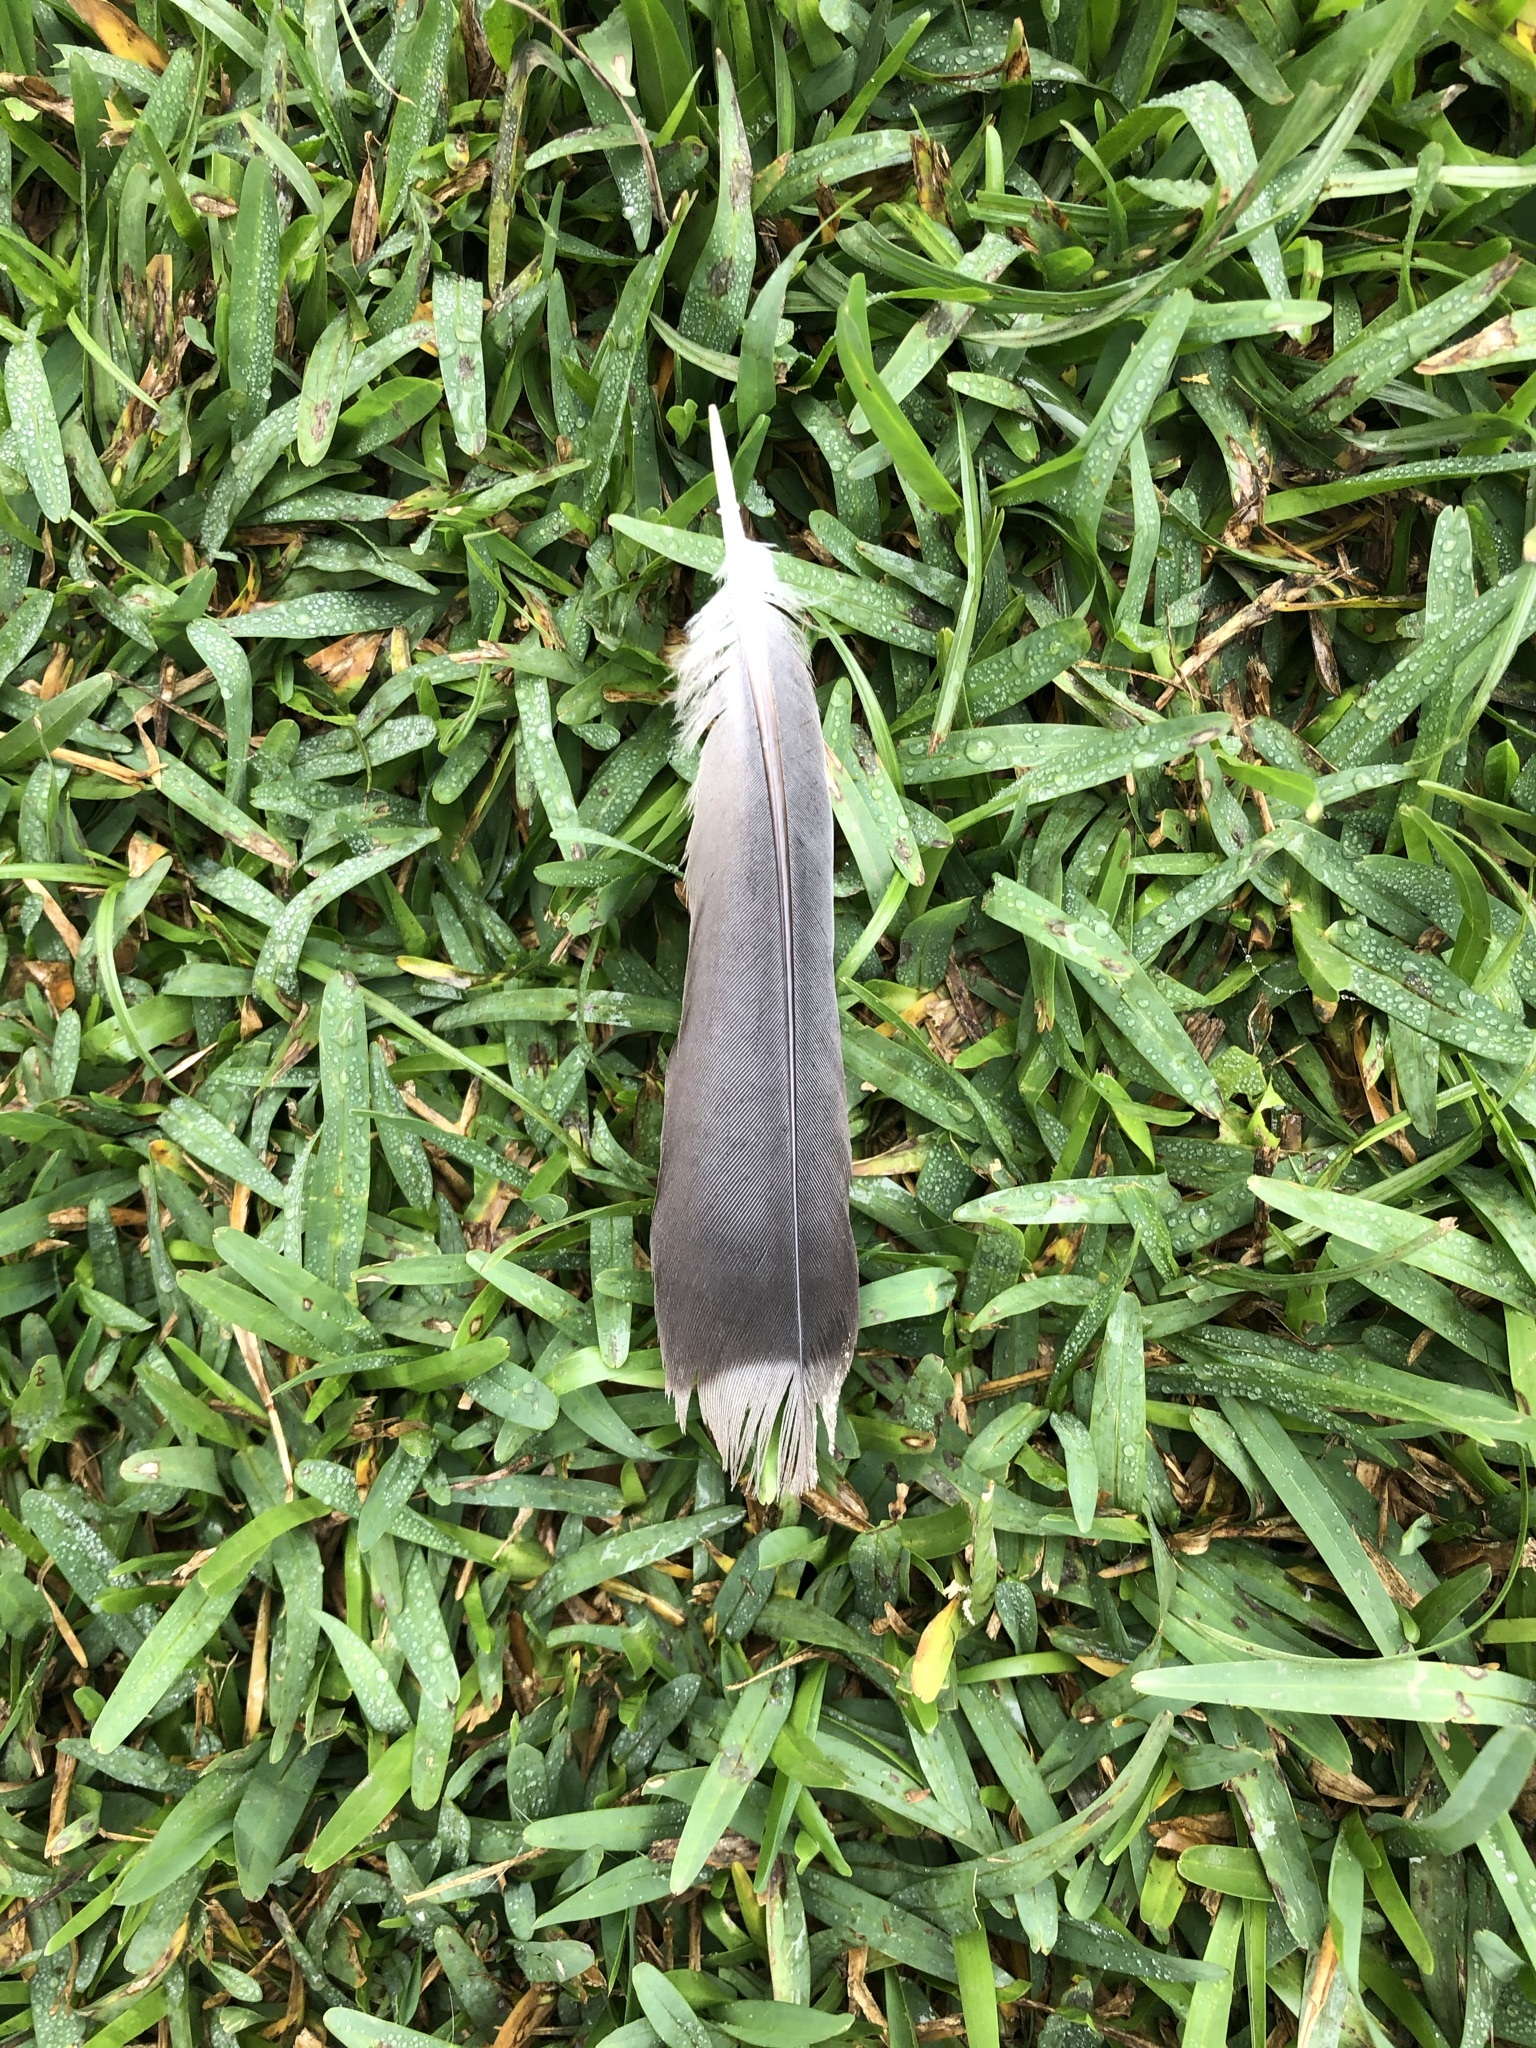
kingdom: Animalia
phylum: Chordata
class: Aves
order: Columbiformes
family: Columbidae
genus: Zenaida
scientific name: Zenaida meloda
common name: West peruvian dove
